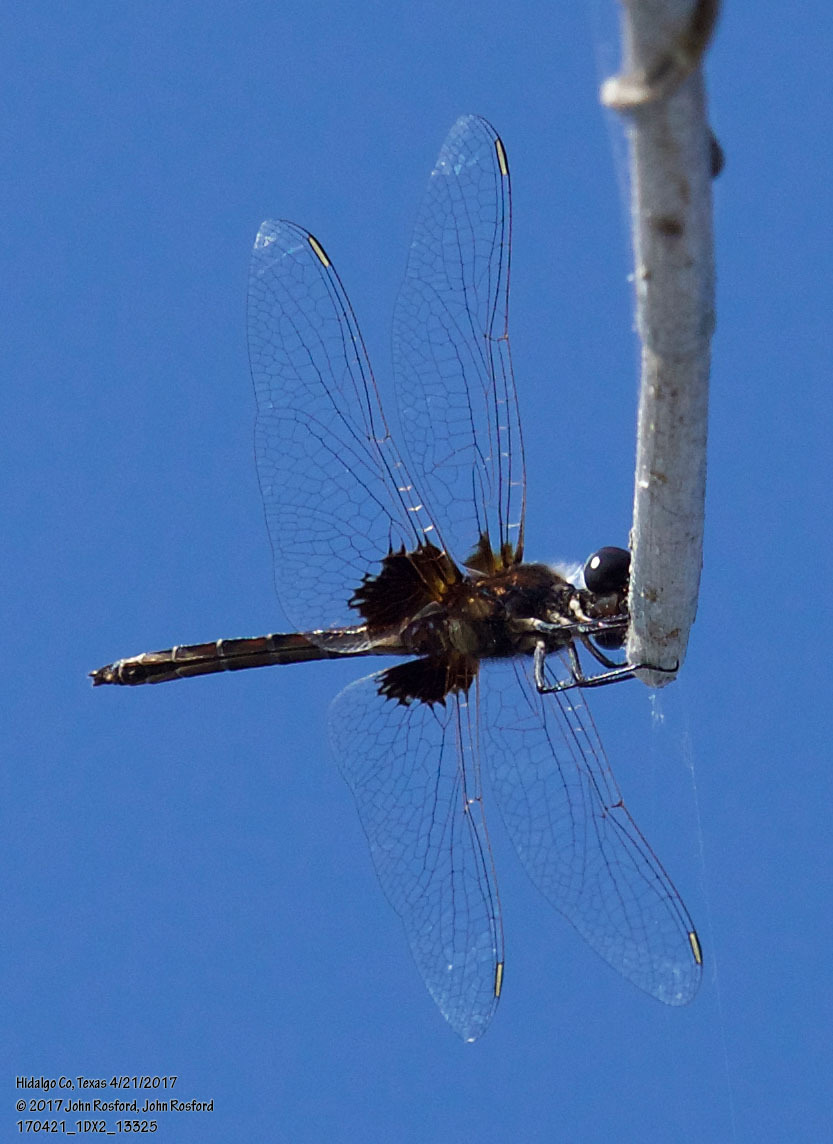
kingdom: Animalia
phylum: Arthropoda
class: Insecta
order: Odonata
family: Libellulidae
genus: Macrodiplax
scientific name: Macrodiplax balteata
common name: Marl pennant
